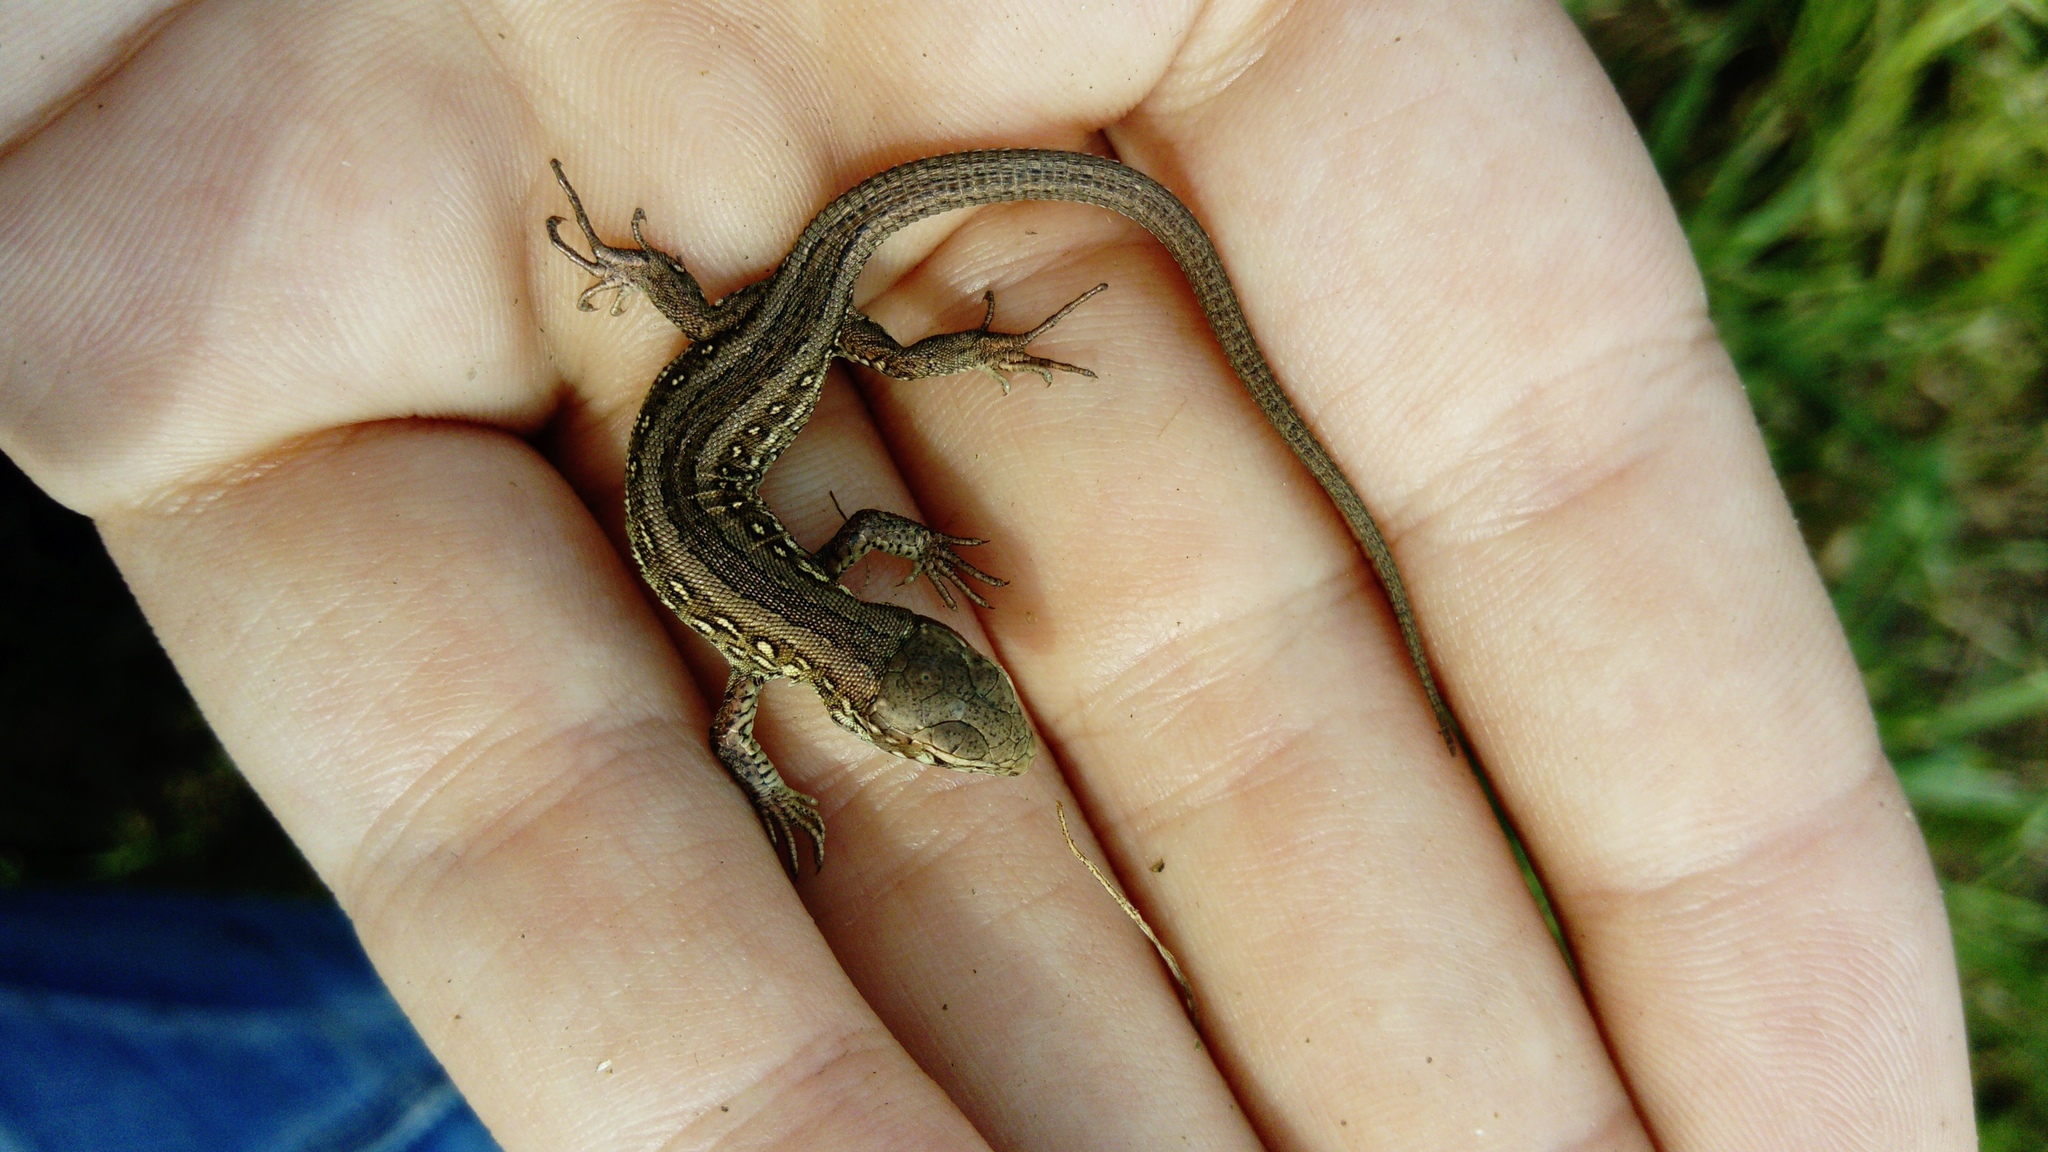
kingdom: Animalia
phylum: Chordata
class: Squamata
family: Lacertidae
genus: Lacerta
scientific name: Lacerta agilis
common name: Sand lizard
